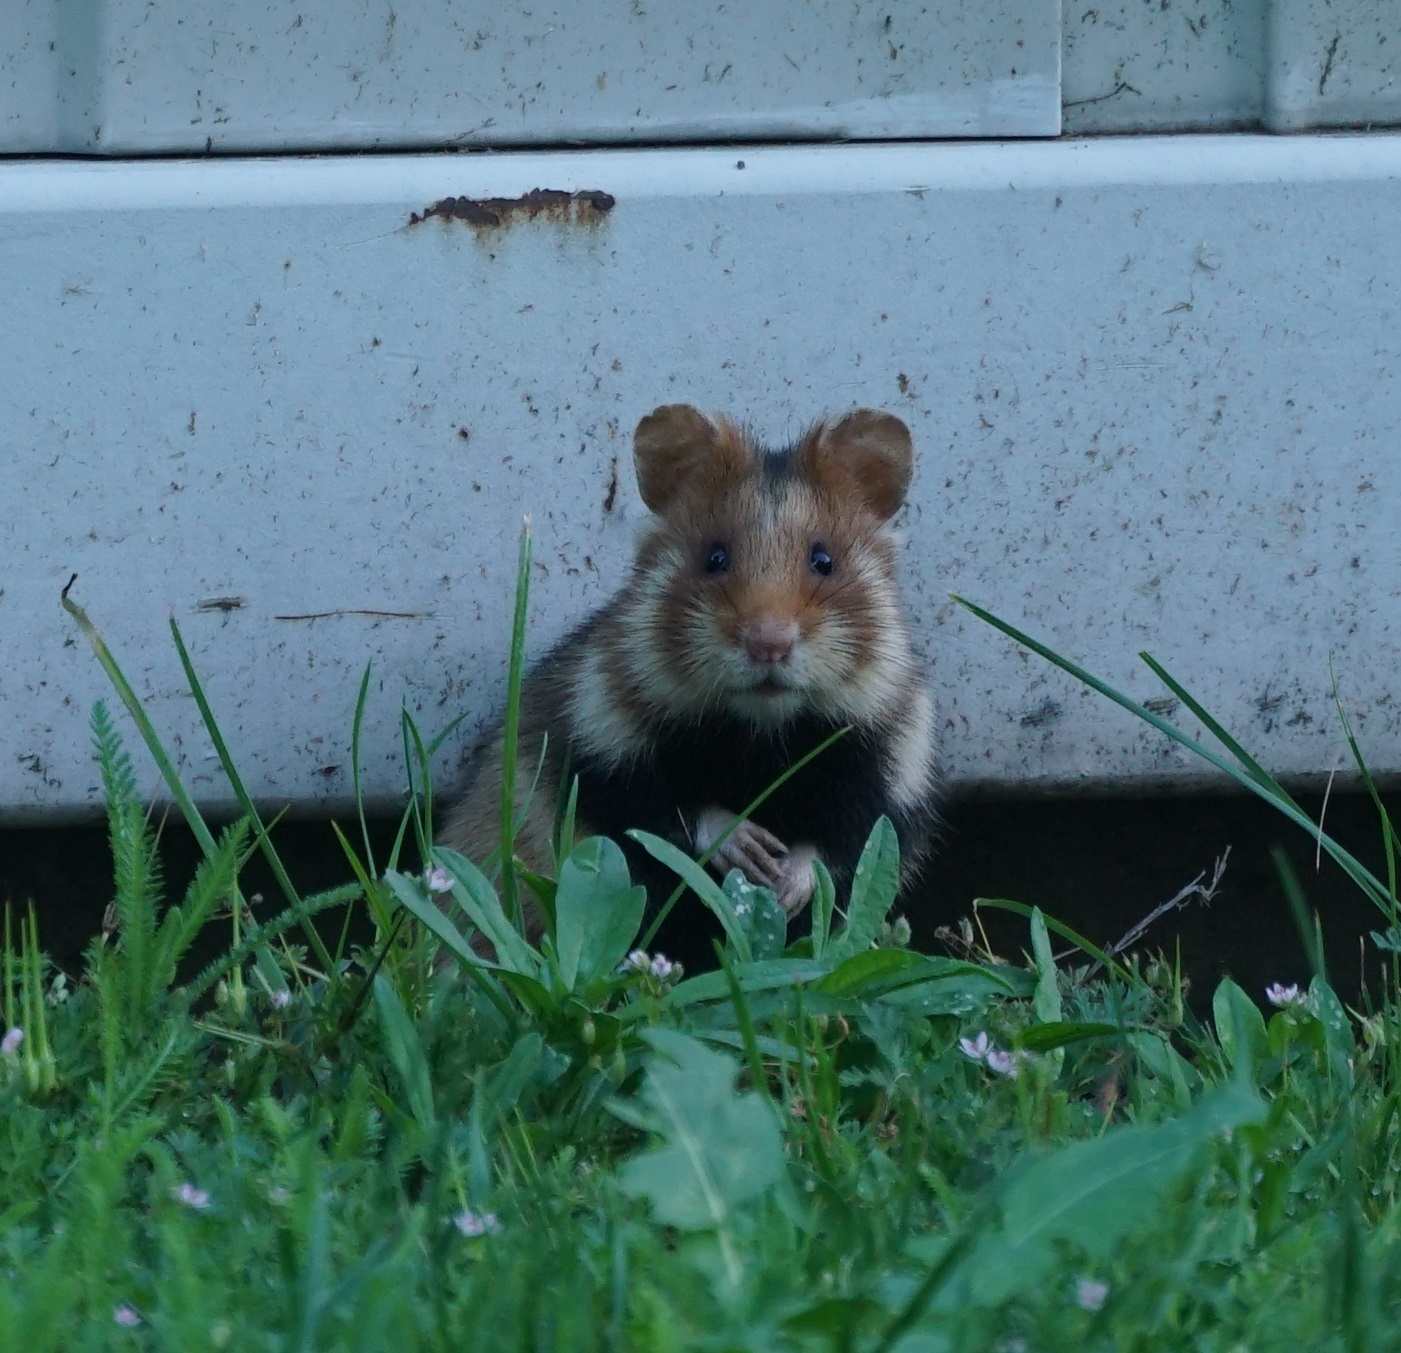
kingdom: Animalia
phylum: Chordata
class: Mammalia
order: Rodentia
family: Cricetidae
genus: Cricetus
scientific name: Cricetus cricetus
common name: Common hamster
